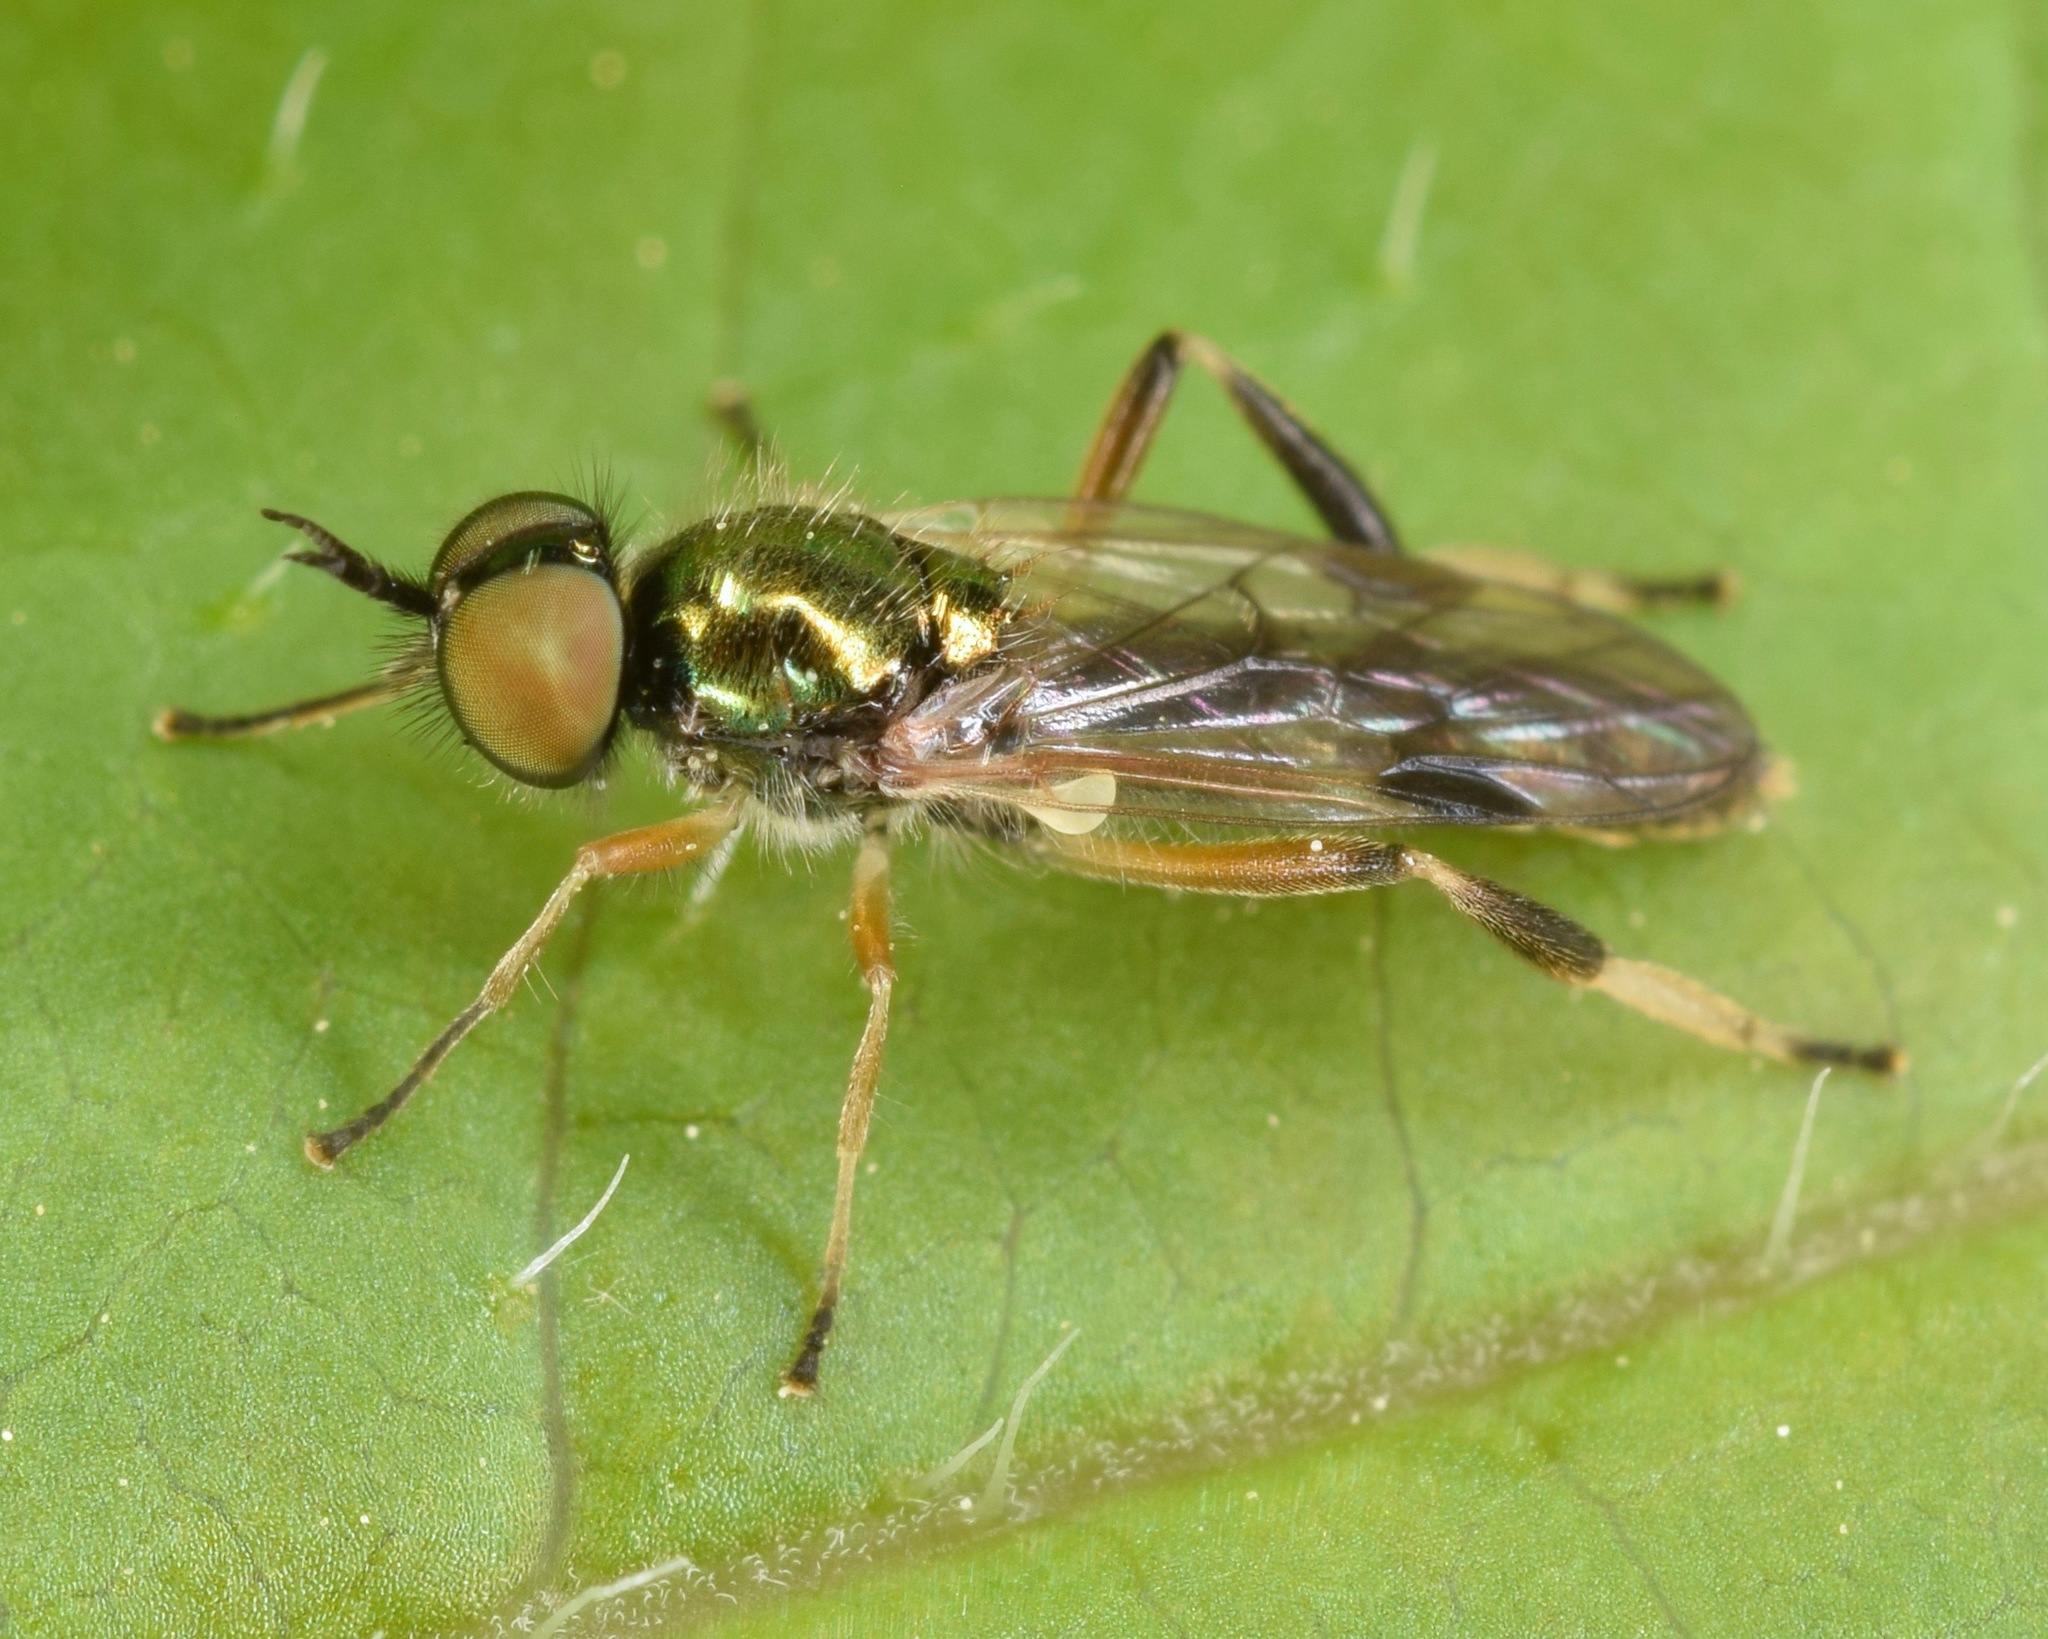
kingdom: Animalia
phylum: Arthropoda
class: Insecta
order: Diptera
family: Stratiomyidae
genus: Actina
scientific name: Actina viridis
